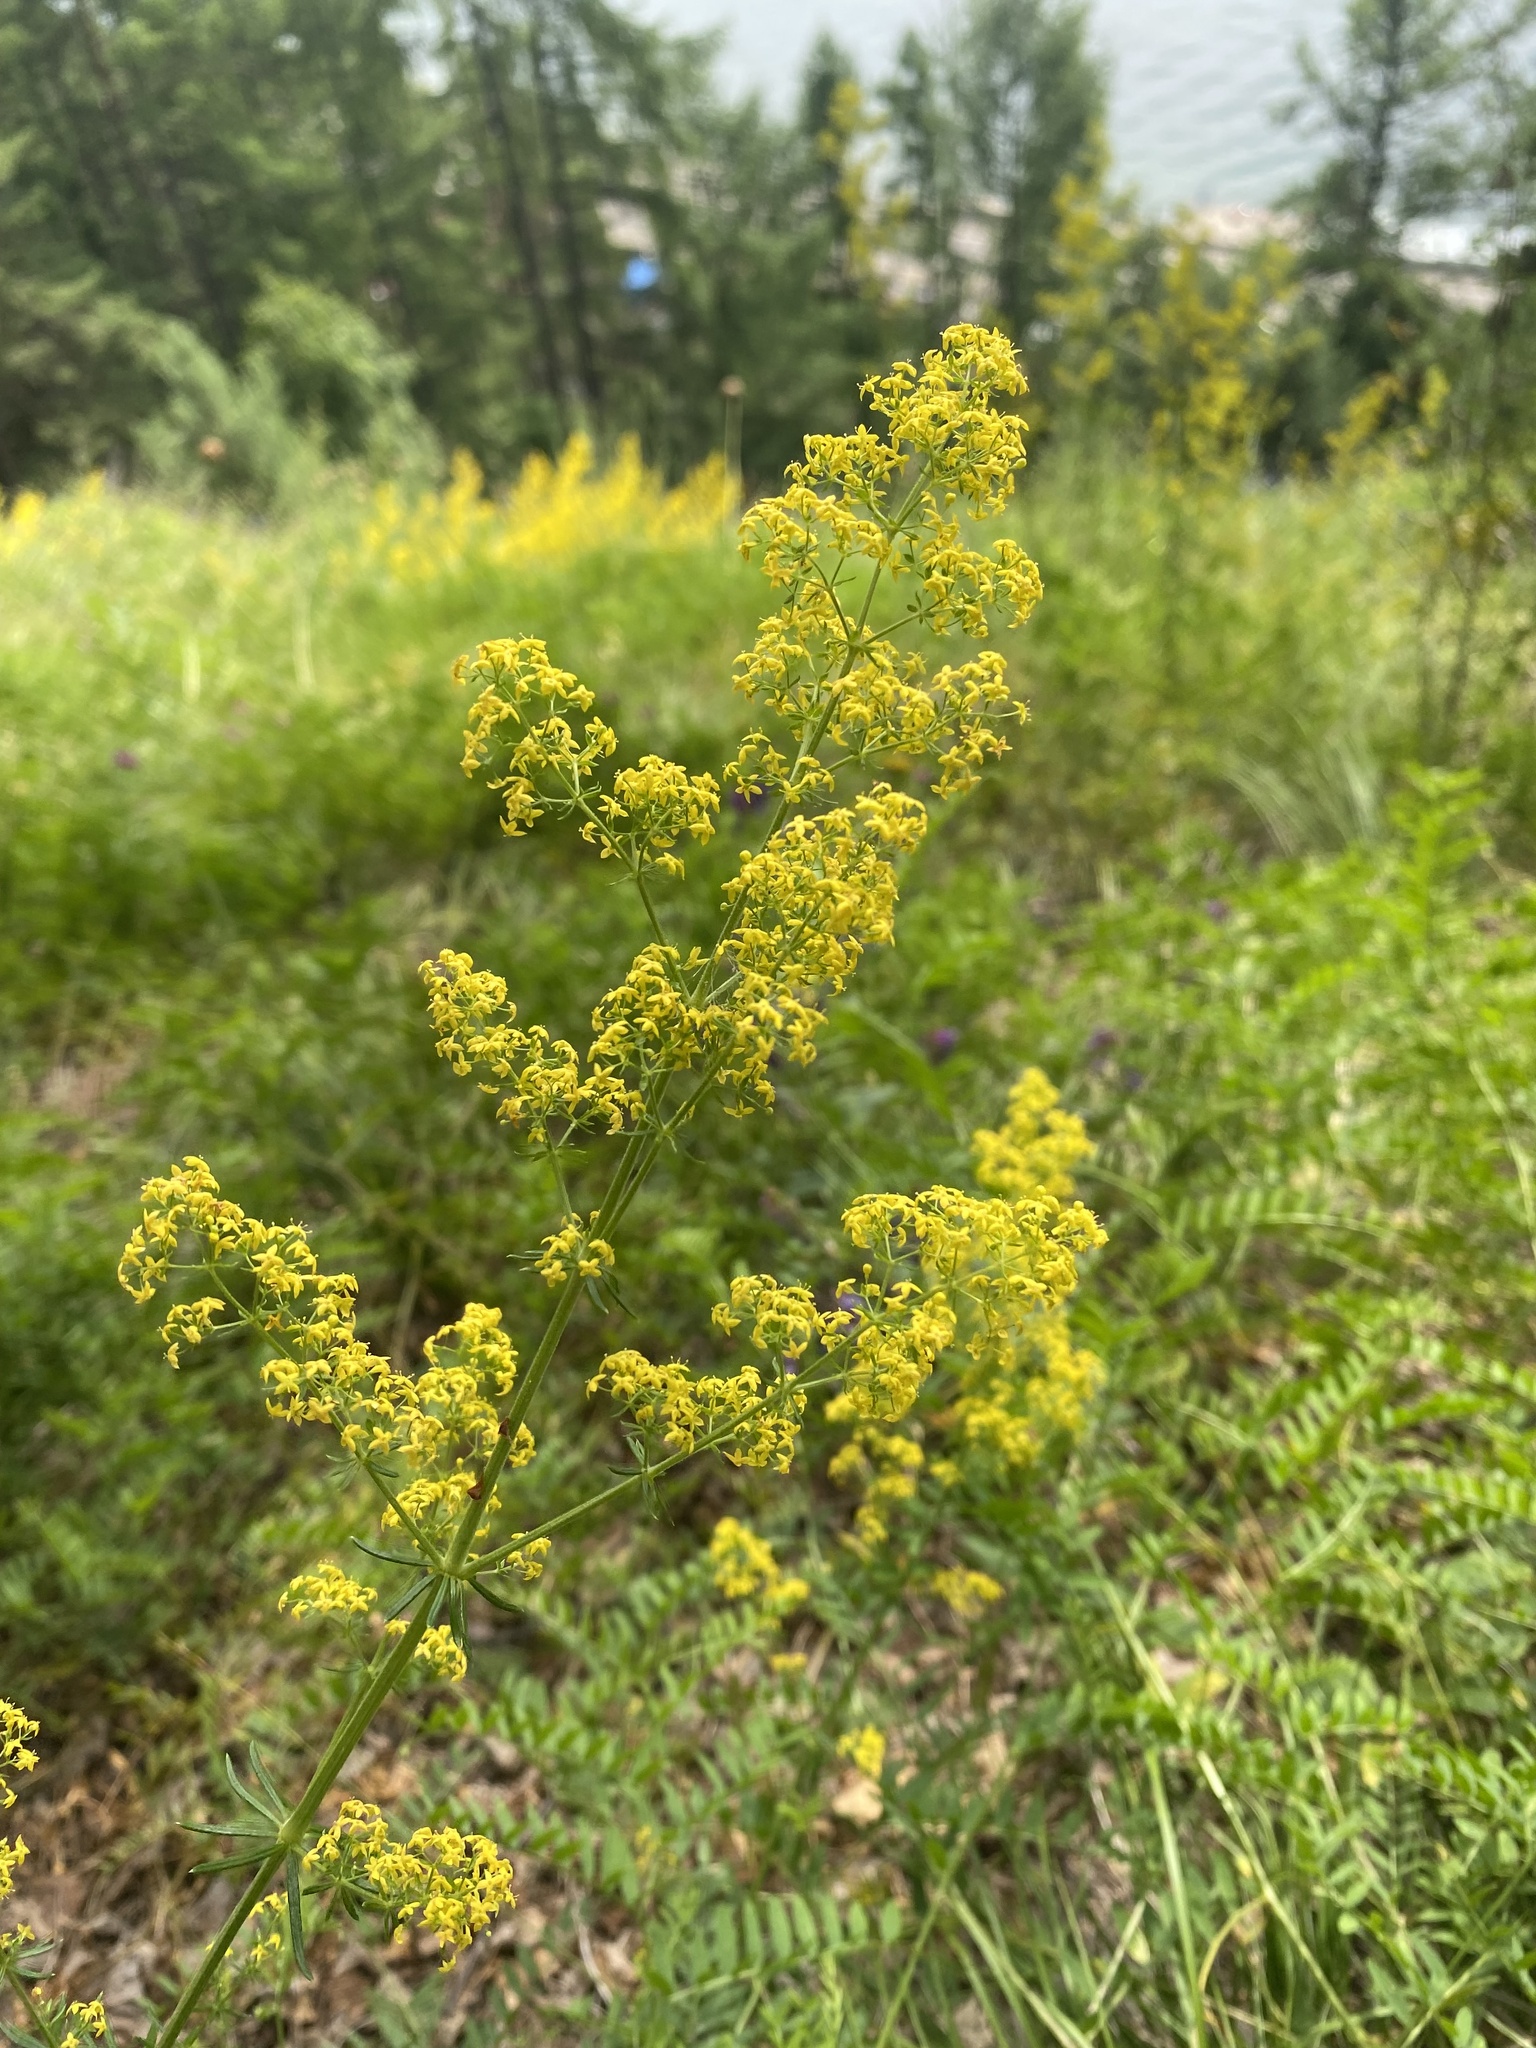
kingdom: Plantae
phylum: Tracheophyta
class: Magnoliopsida
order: Gentianales
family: Rubiaceae
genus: Galium
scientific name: Galium verum
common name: Lady's bedstraw
